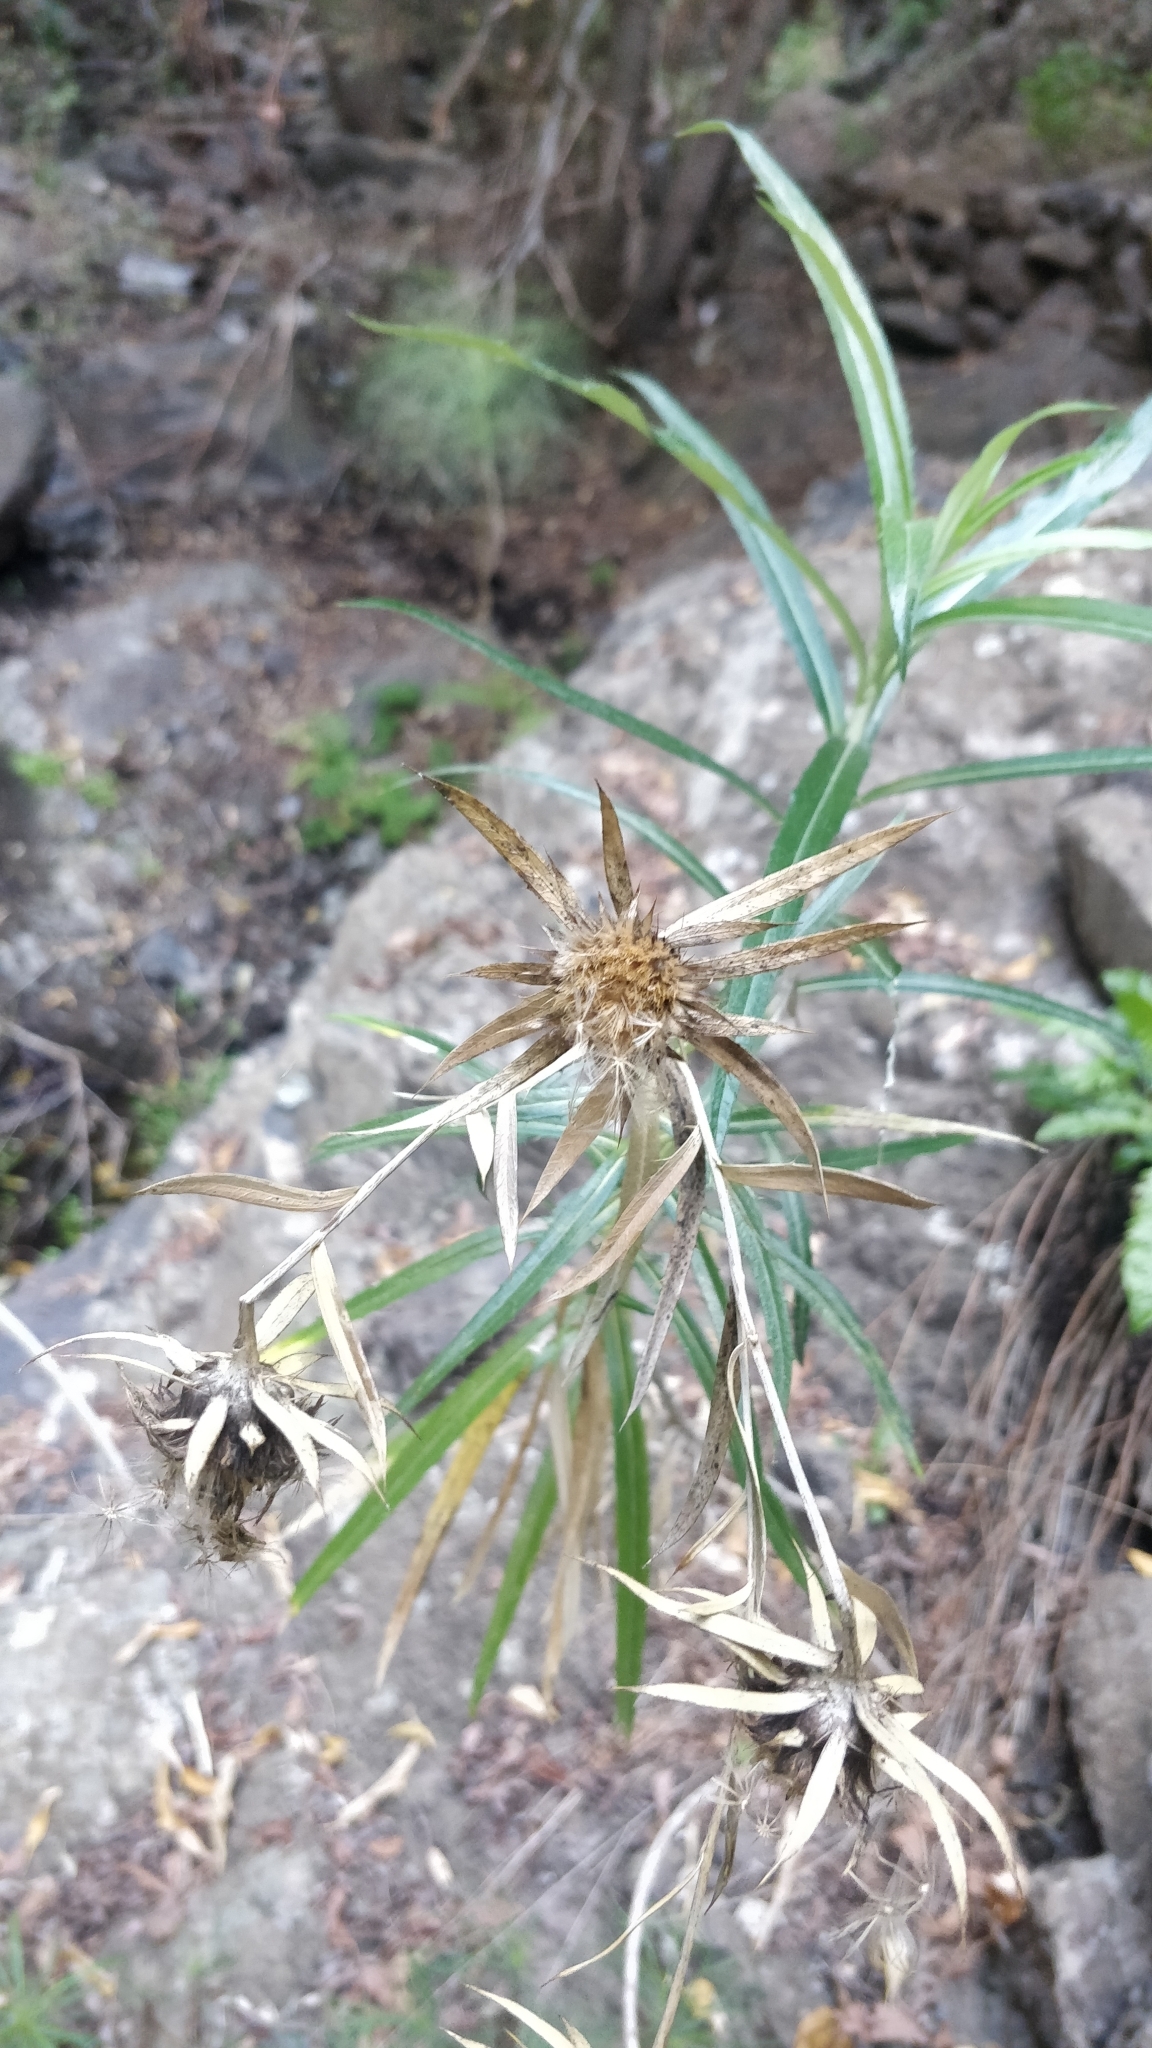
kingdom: Plantae
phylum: Tracheophyta
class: Magnoliopsida
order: Asterales
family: Asteraceae
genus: Carlina
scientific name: Carlina salicifolia
